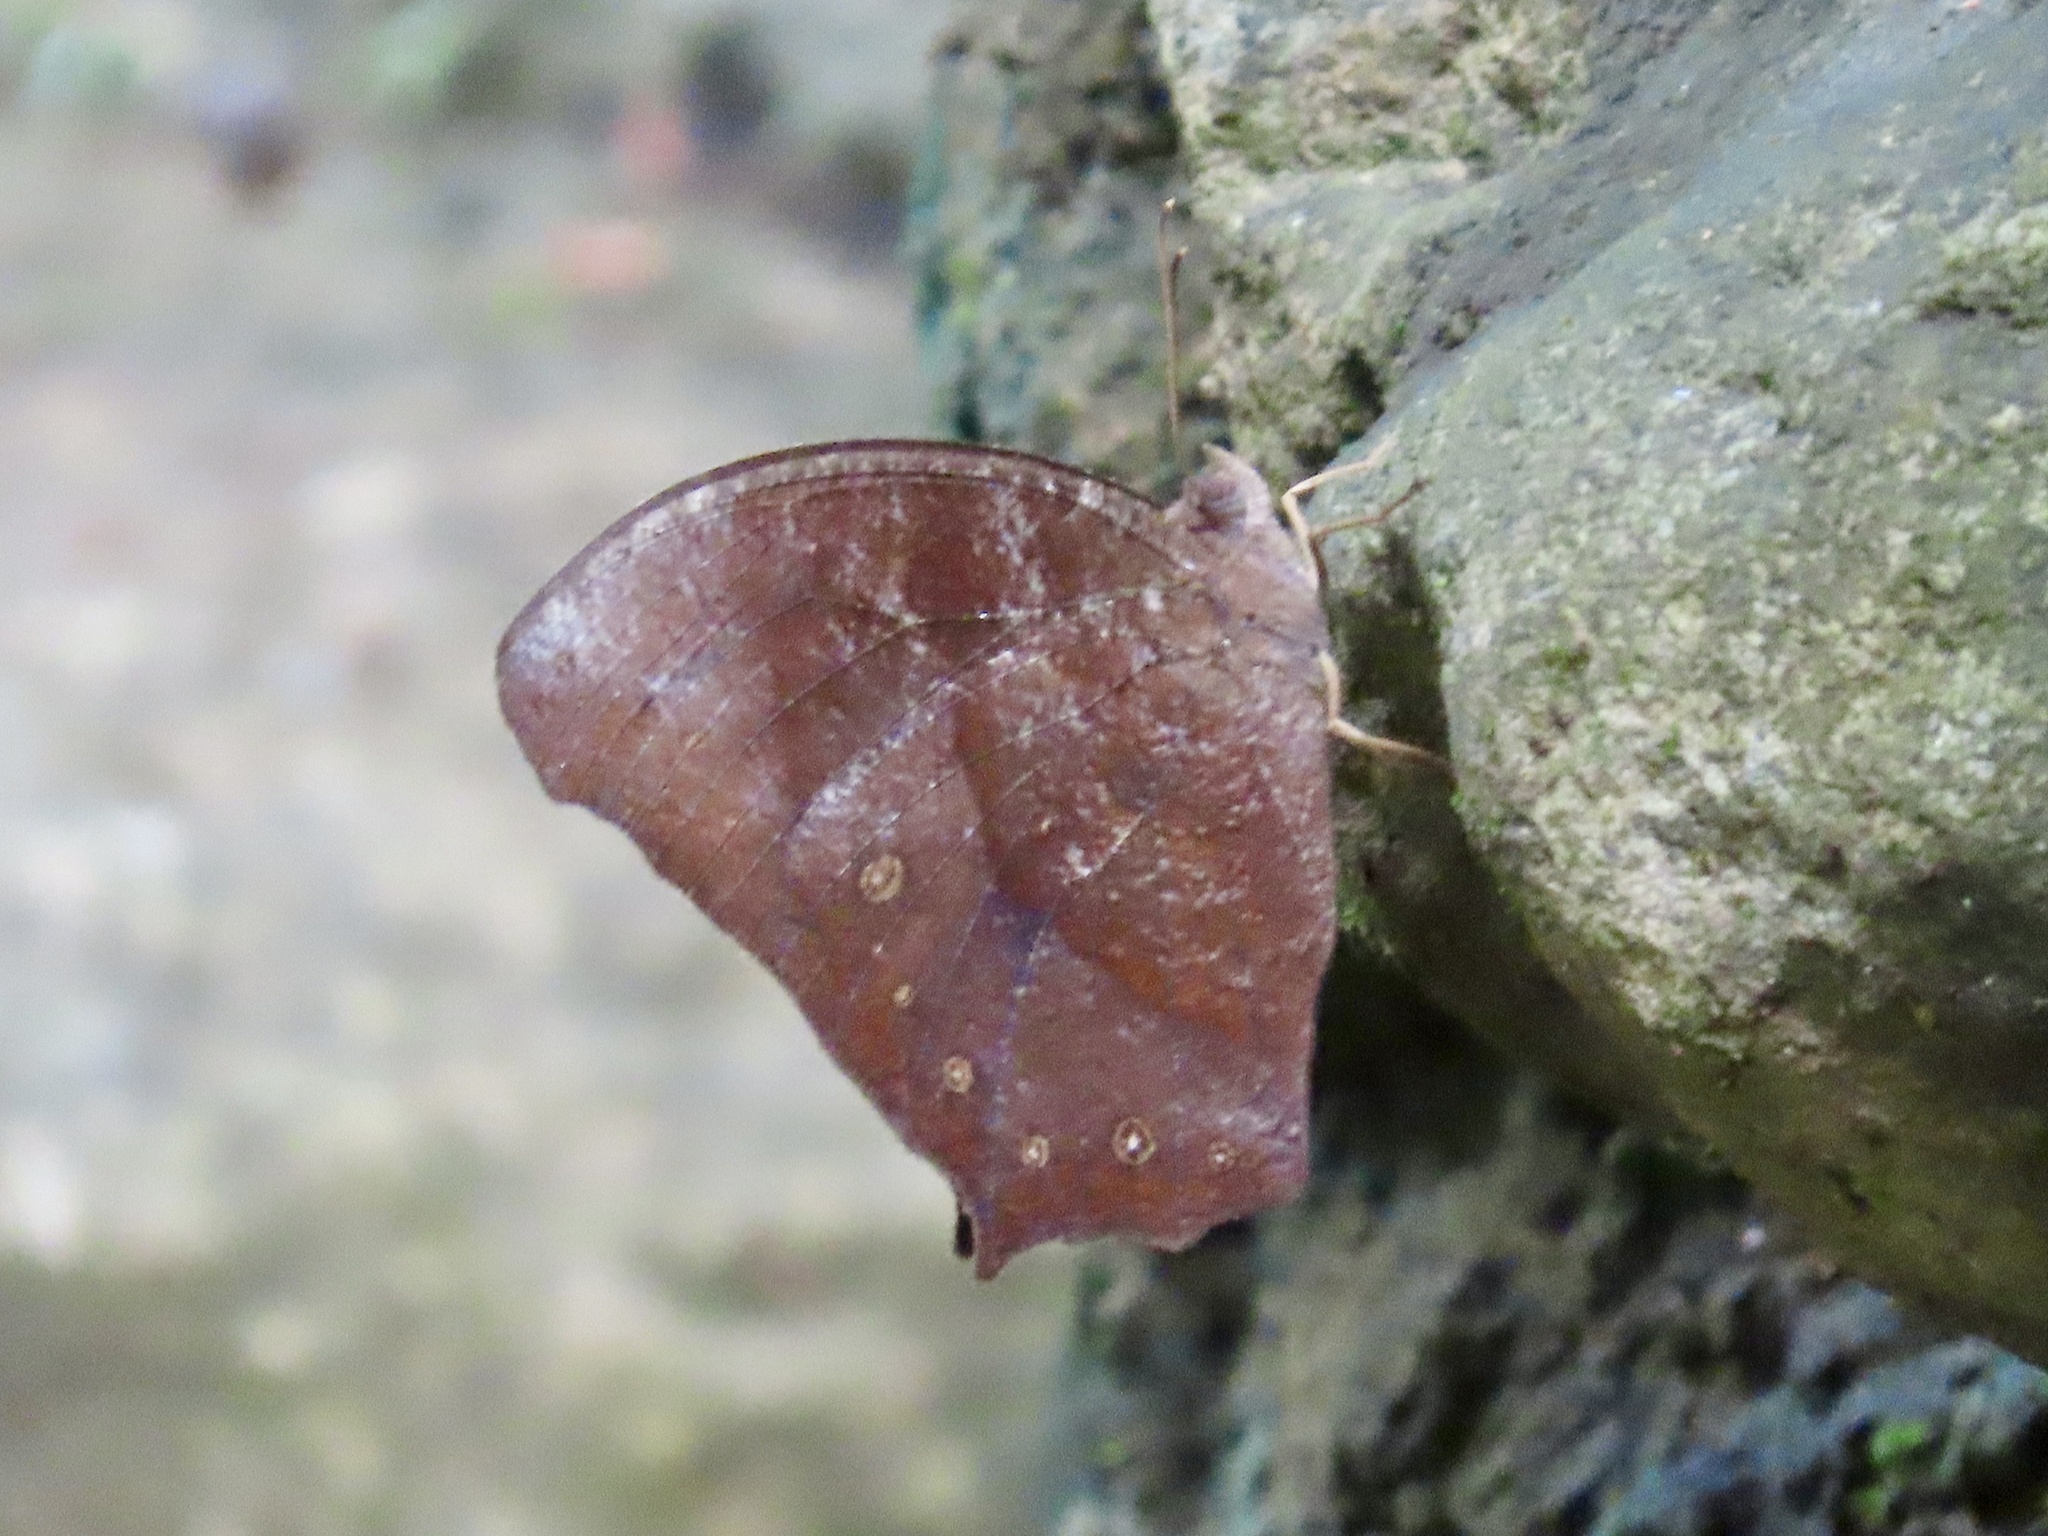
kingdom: Animalia
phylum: Arthropoda
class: Insecta
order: Lepidoptera
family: Nymphalidae
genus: Melanitis
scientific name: Melanitis phedima
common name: Dark evening brown
